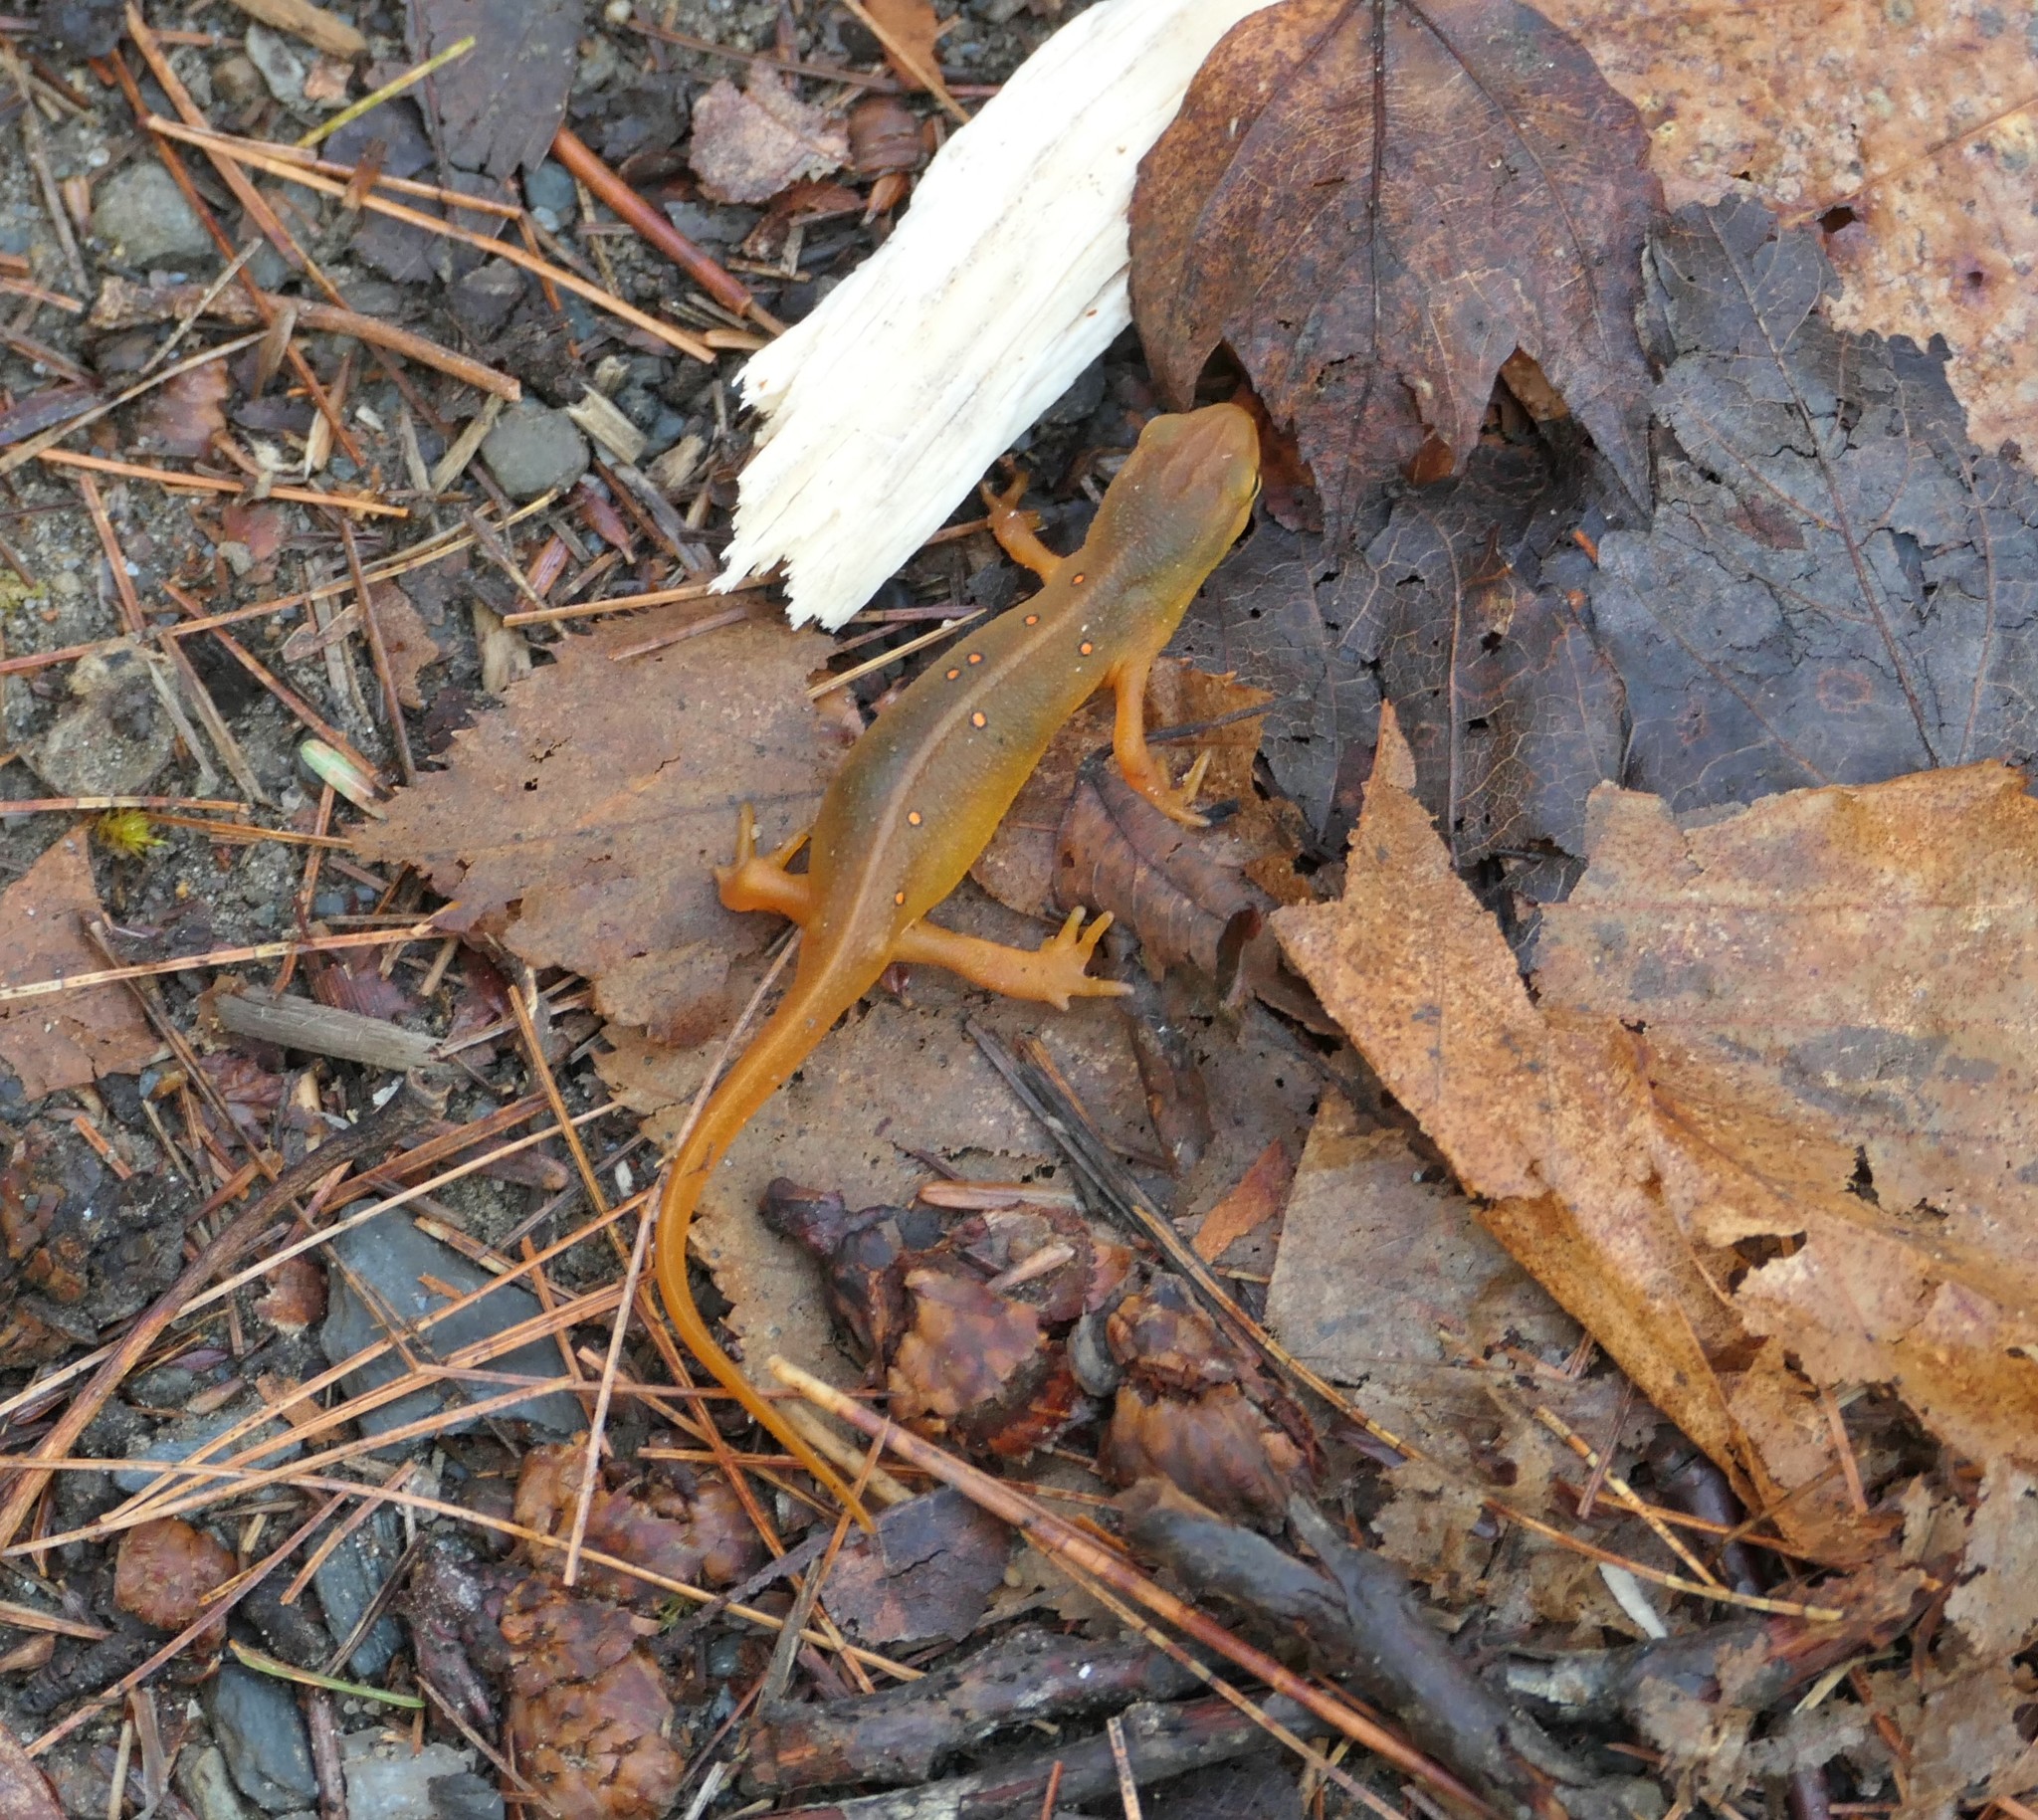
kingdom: Animalia
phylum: Chordata
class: Amphibia
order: Caudata
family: Salamandridae
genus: Notophthalmus
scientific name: Notophthalmus viridescens
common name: Eastern newt
